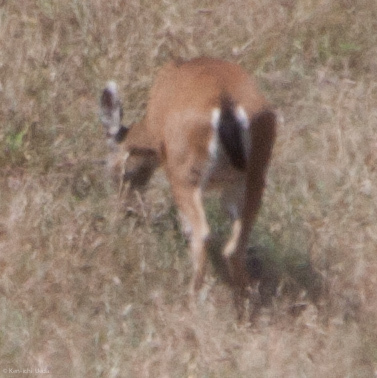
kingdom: Animalia
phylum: Chordata
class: Mammalia
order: Artiodactyla
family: Cervidae
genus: Odocoileus
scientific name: Odocoileus hemionus
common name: Mule deer
